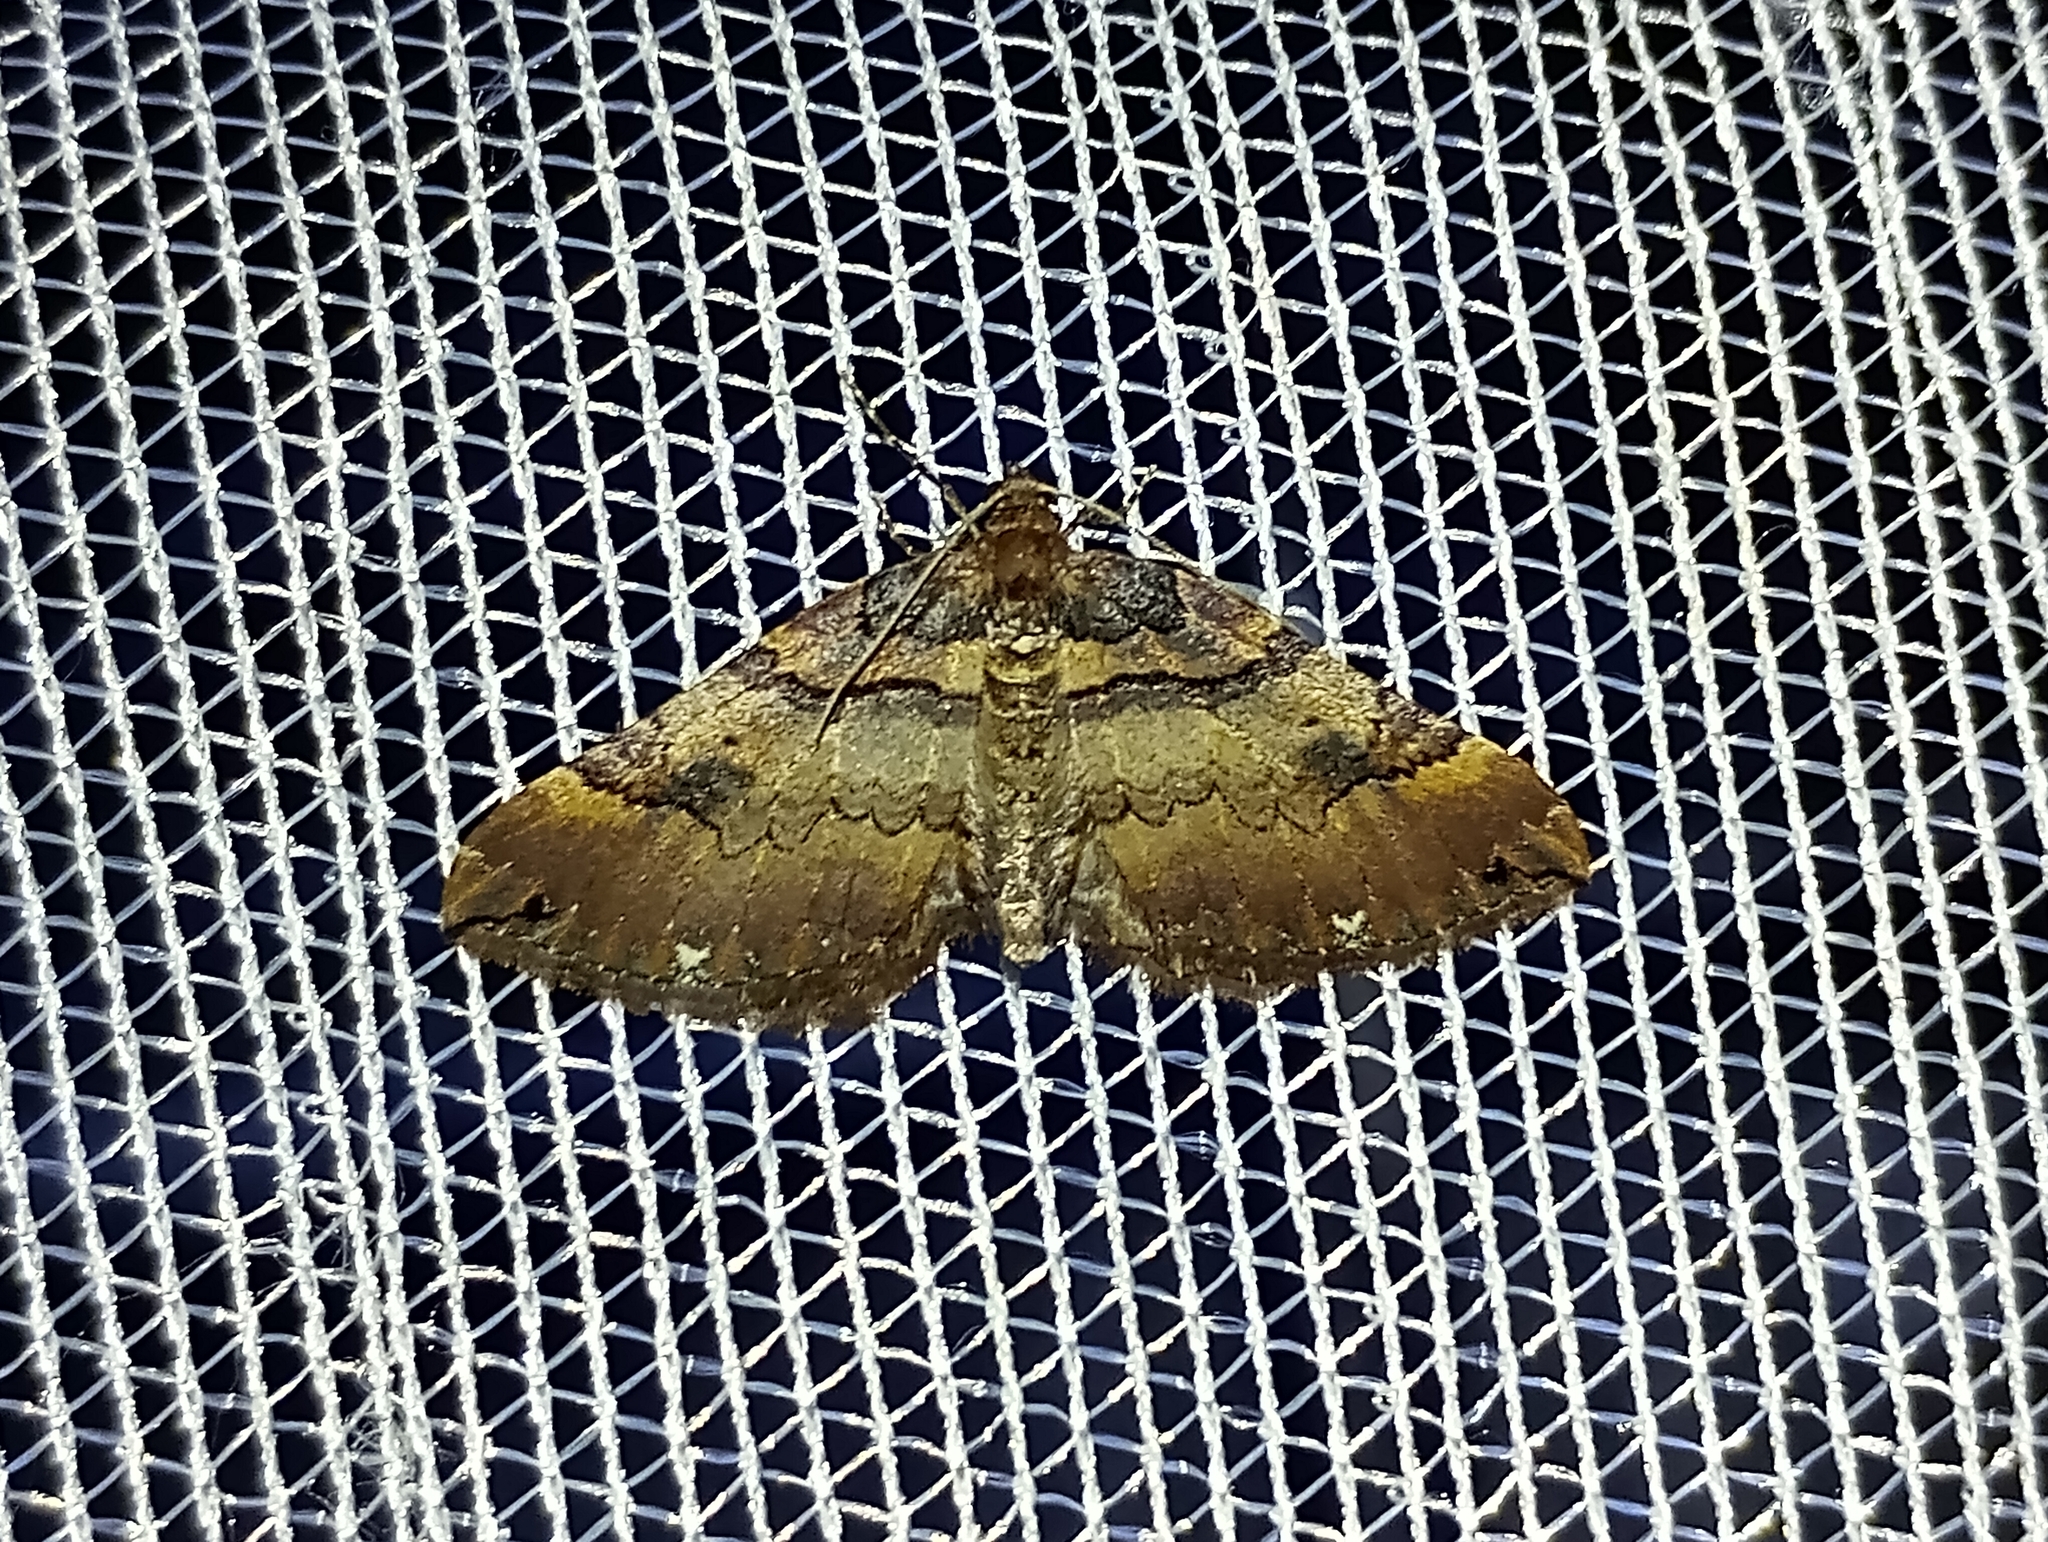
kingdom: Animalia
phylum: Arthropoda
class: Insecta
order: Lepidoptera
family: Geometridae
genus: Anticlea
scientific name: Anticlea badiata
